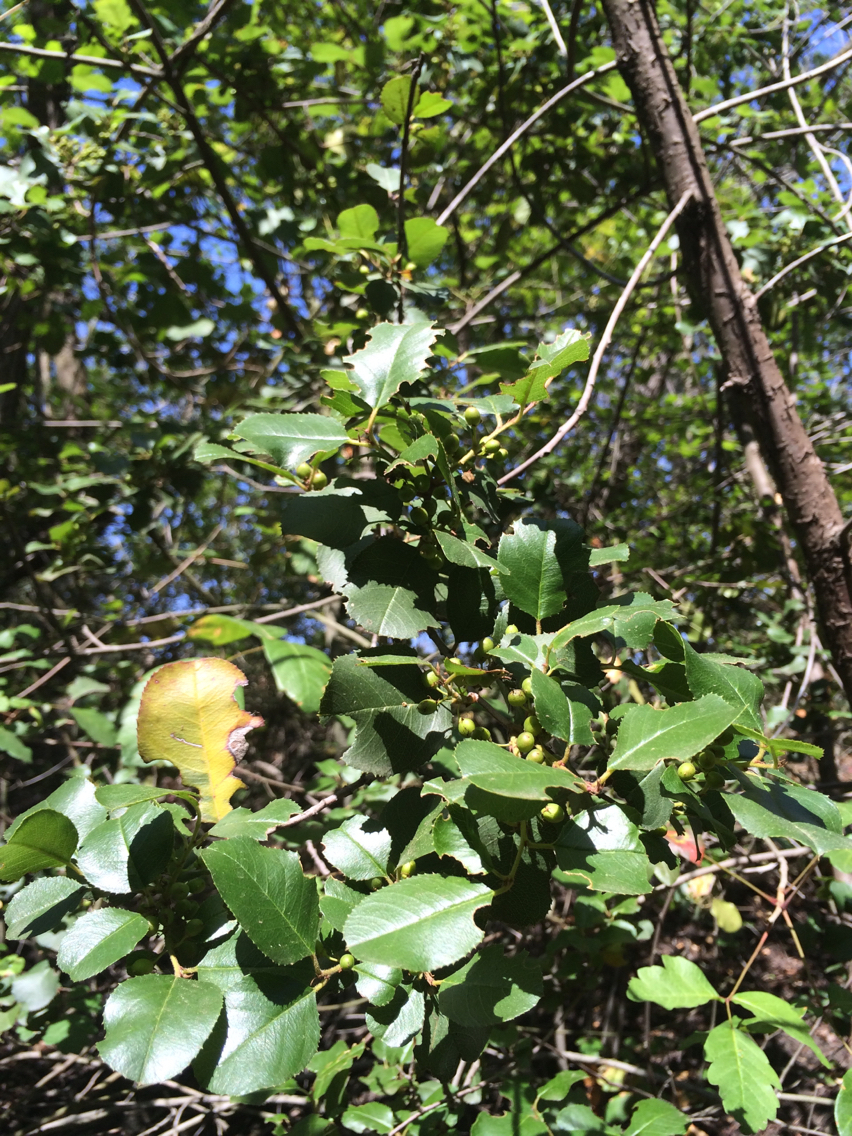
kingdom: Plantae
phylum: Tracheophyta
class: Magnoliopsida
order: Rosales
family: Rhamnaceae
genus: Frangula
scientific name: Frangula californica
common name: California buckthorn
